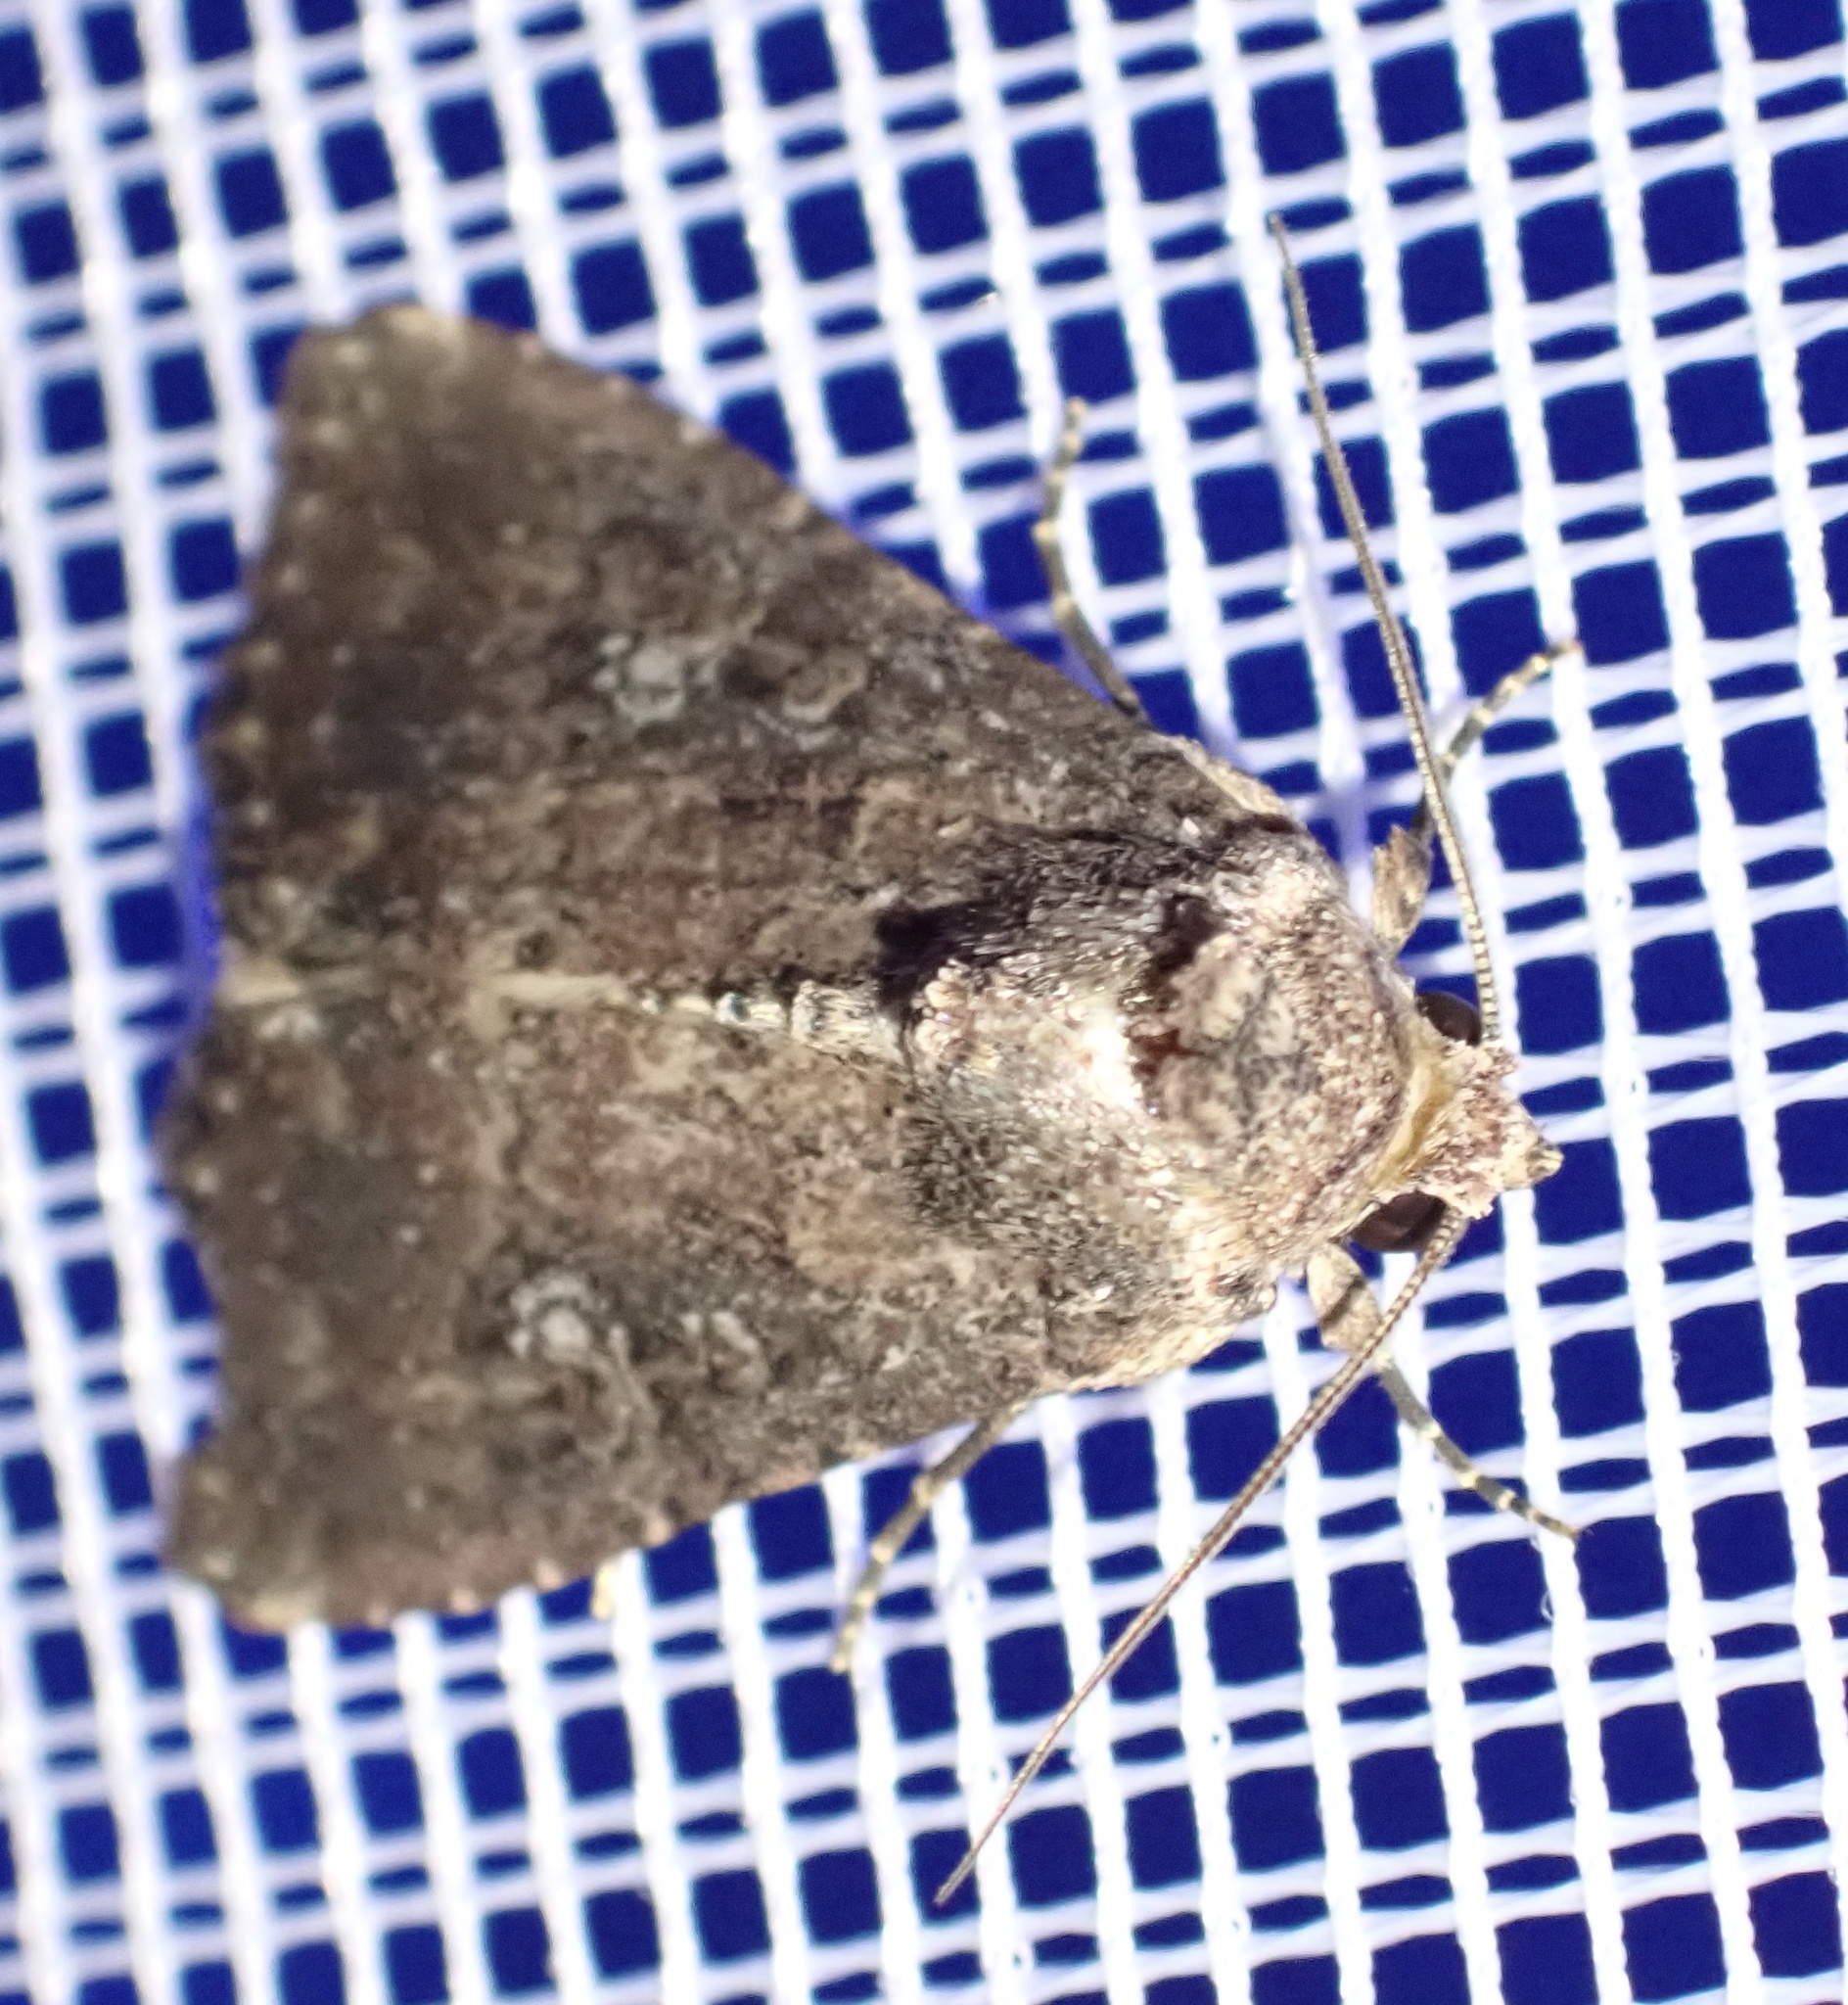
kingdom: Animalia
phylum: Arthropoda
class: Insecta
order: Lepidoptera
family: Noctuidae
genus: Condica
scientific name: Condica capensis
